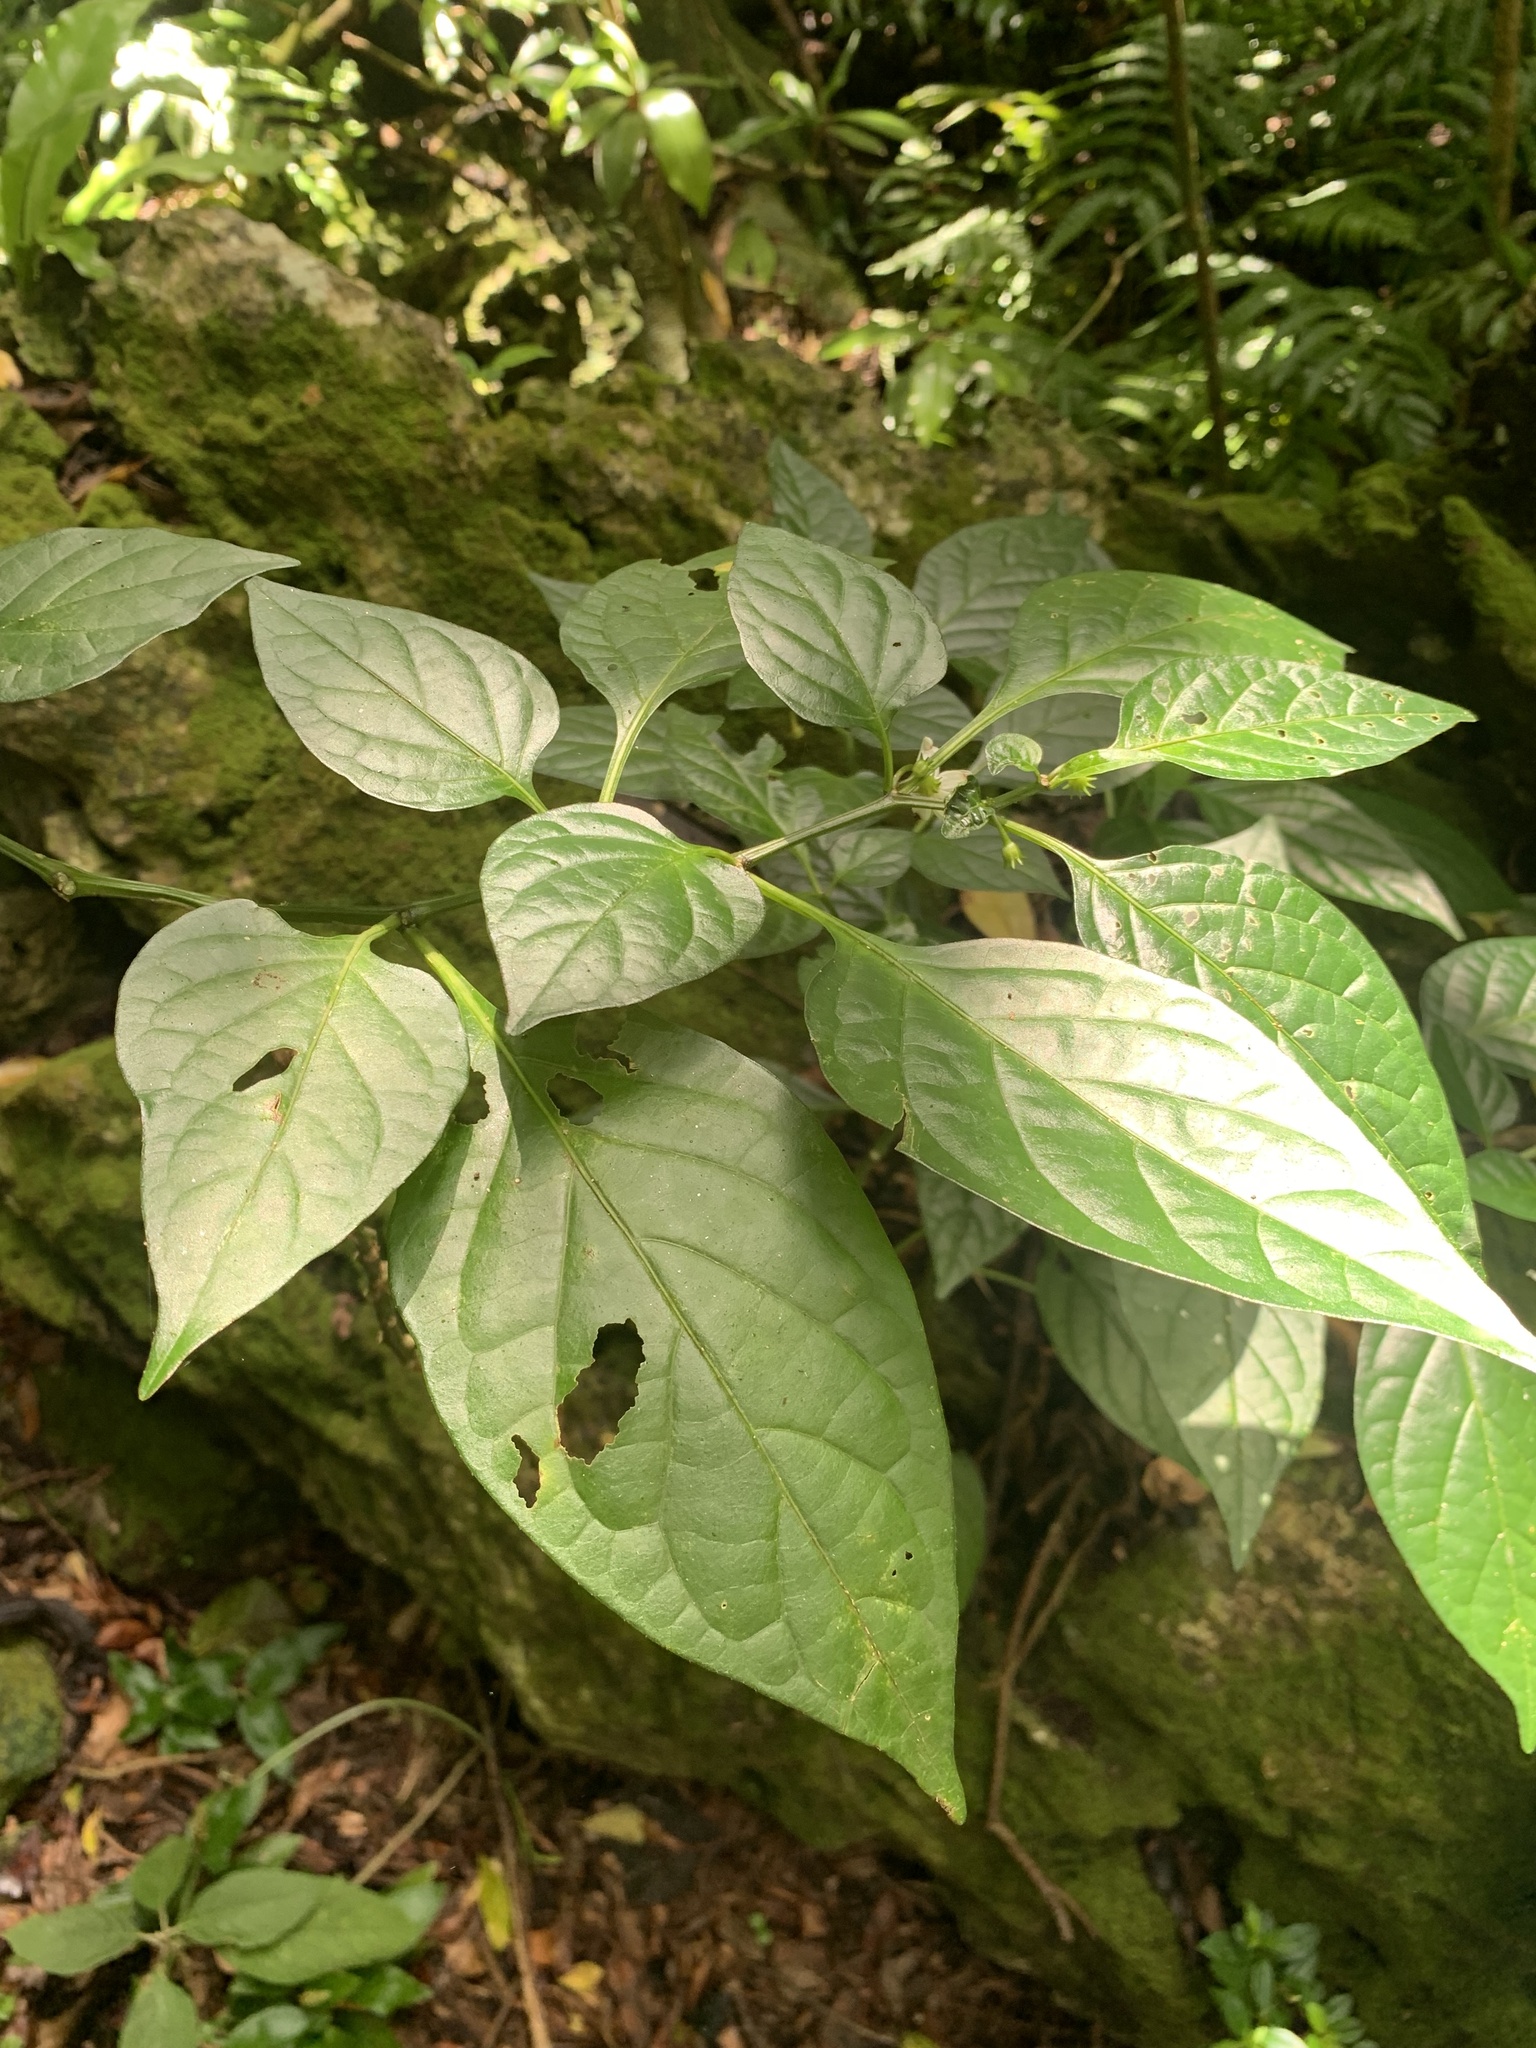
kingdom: Plantae
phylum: Tracheophyta
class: Magnoliopsida
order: Solanales
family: Solanaceae
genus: Lycianthes
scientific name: Lycianthes boninensis
